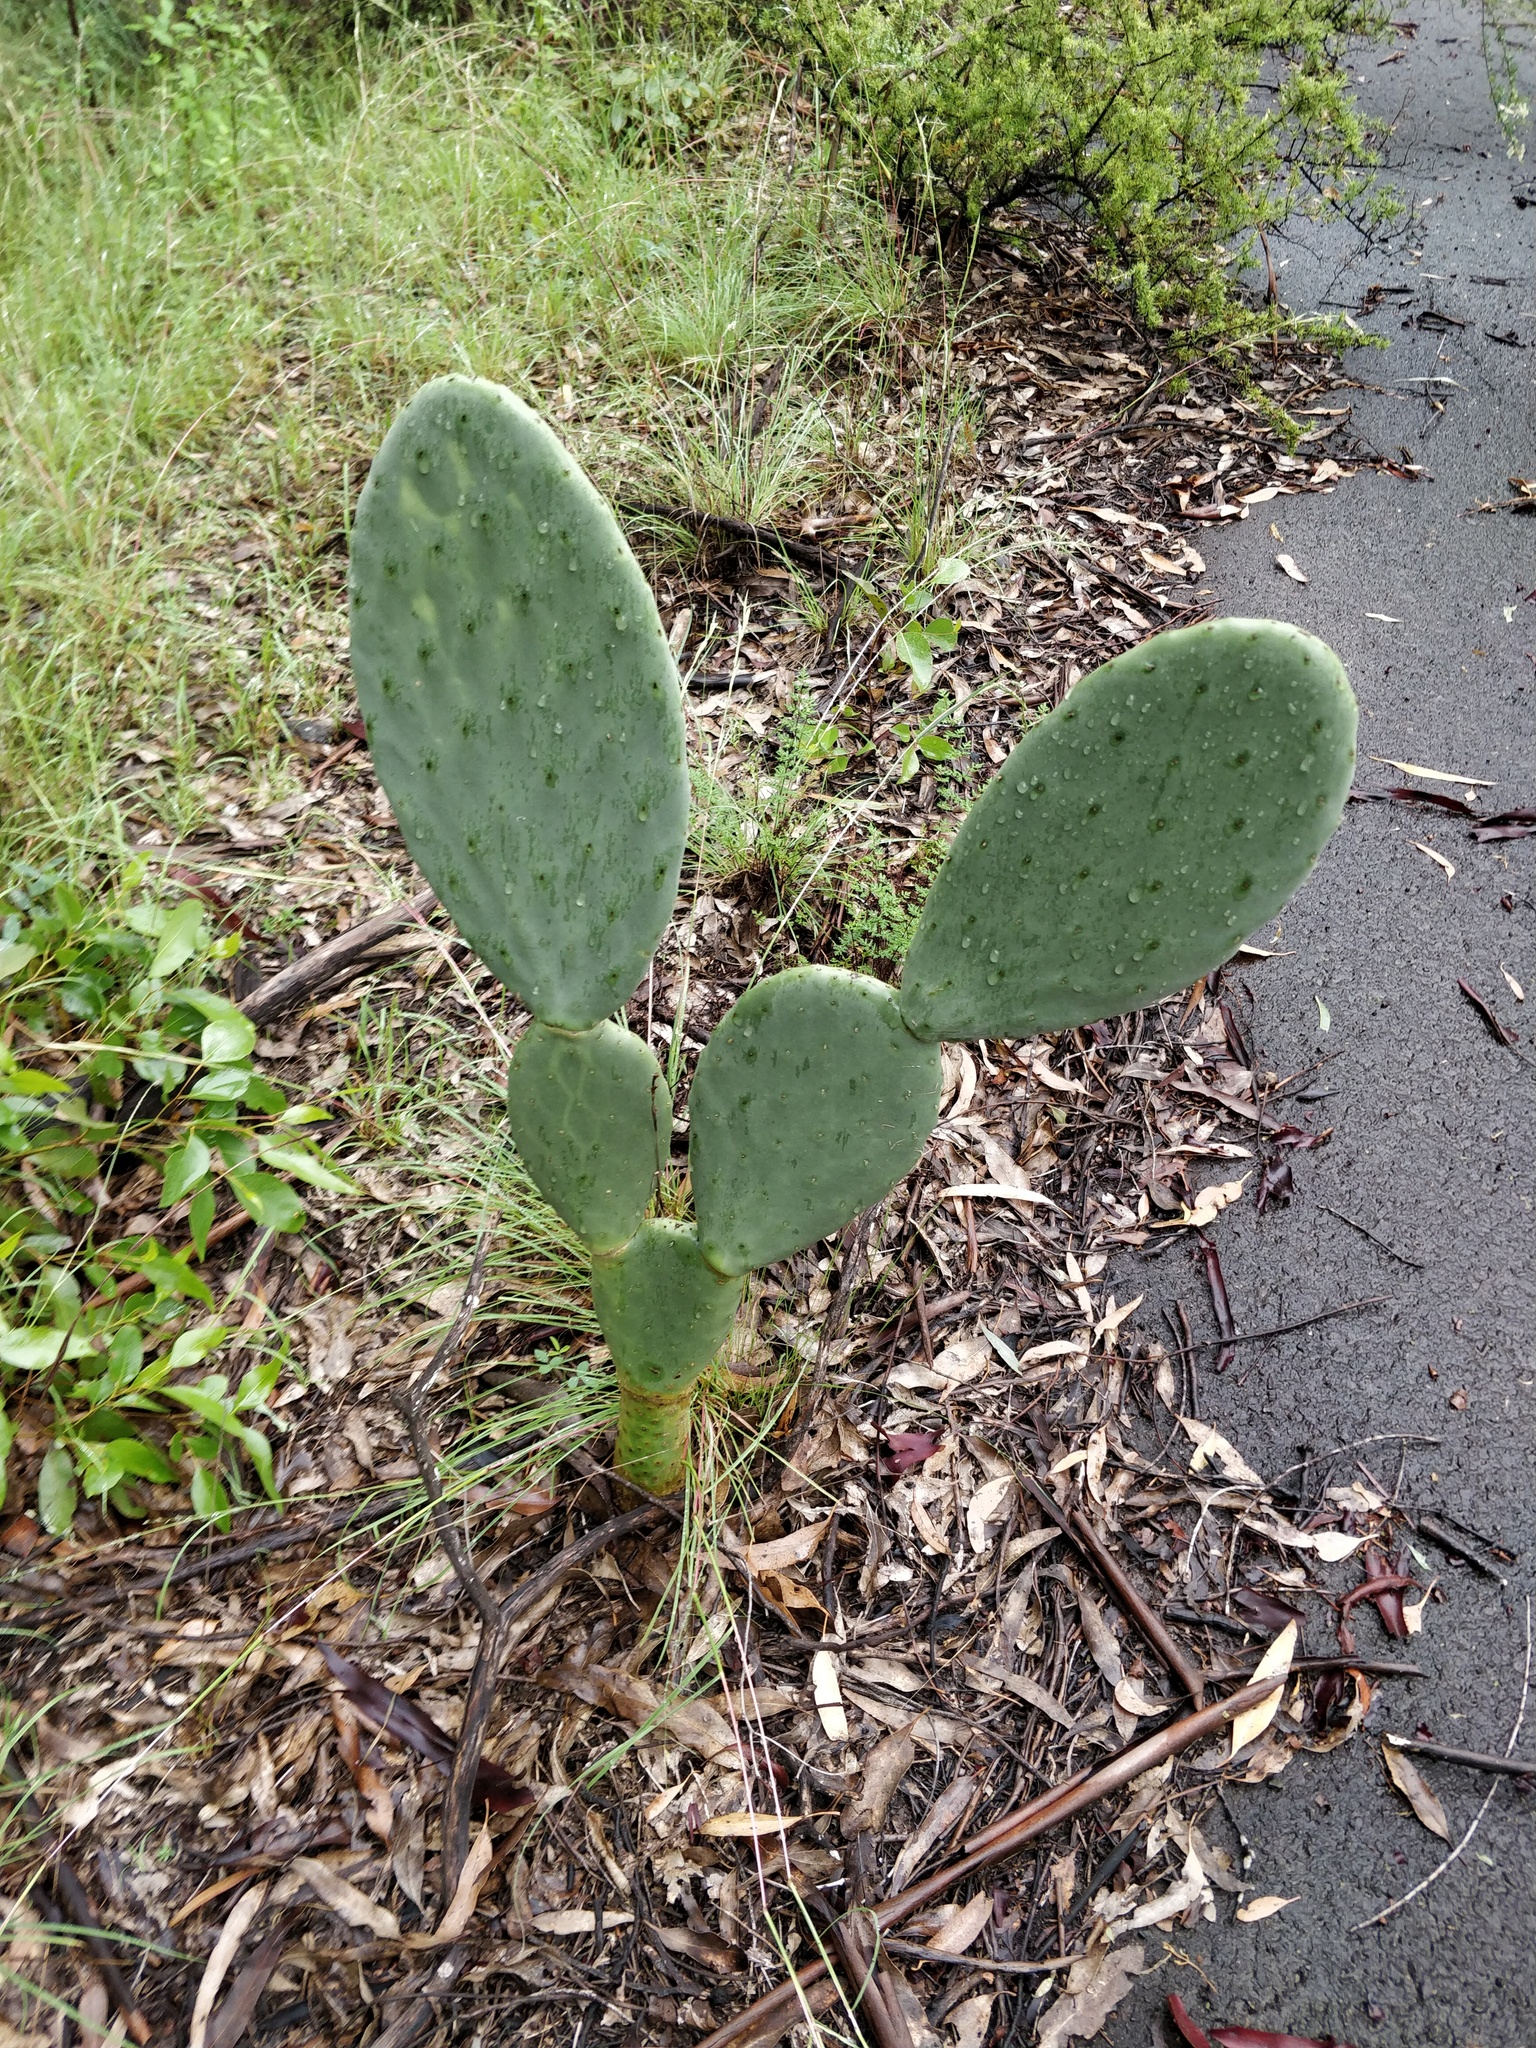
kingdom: Plantae
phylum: Tracheophyta
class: Magnoliopsida
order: Caryophyllales
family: Cactaceae
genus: Opuntia
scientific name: Opuntia ficus-indica
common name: Barbary fig
